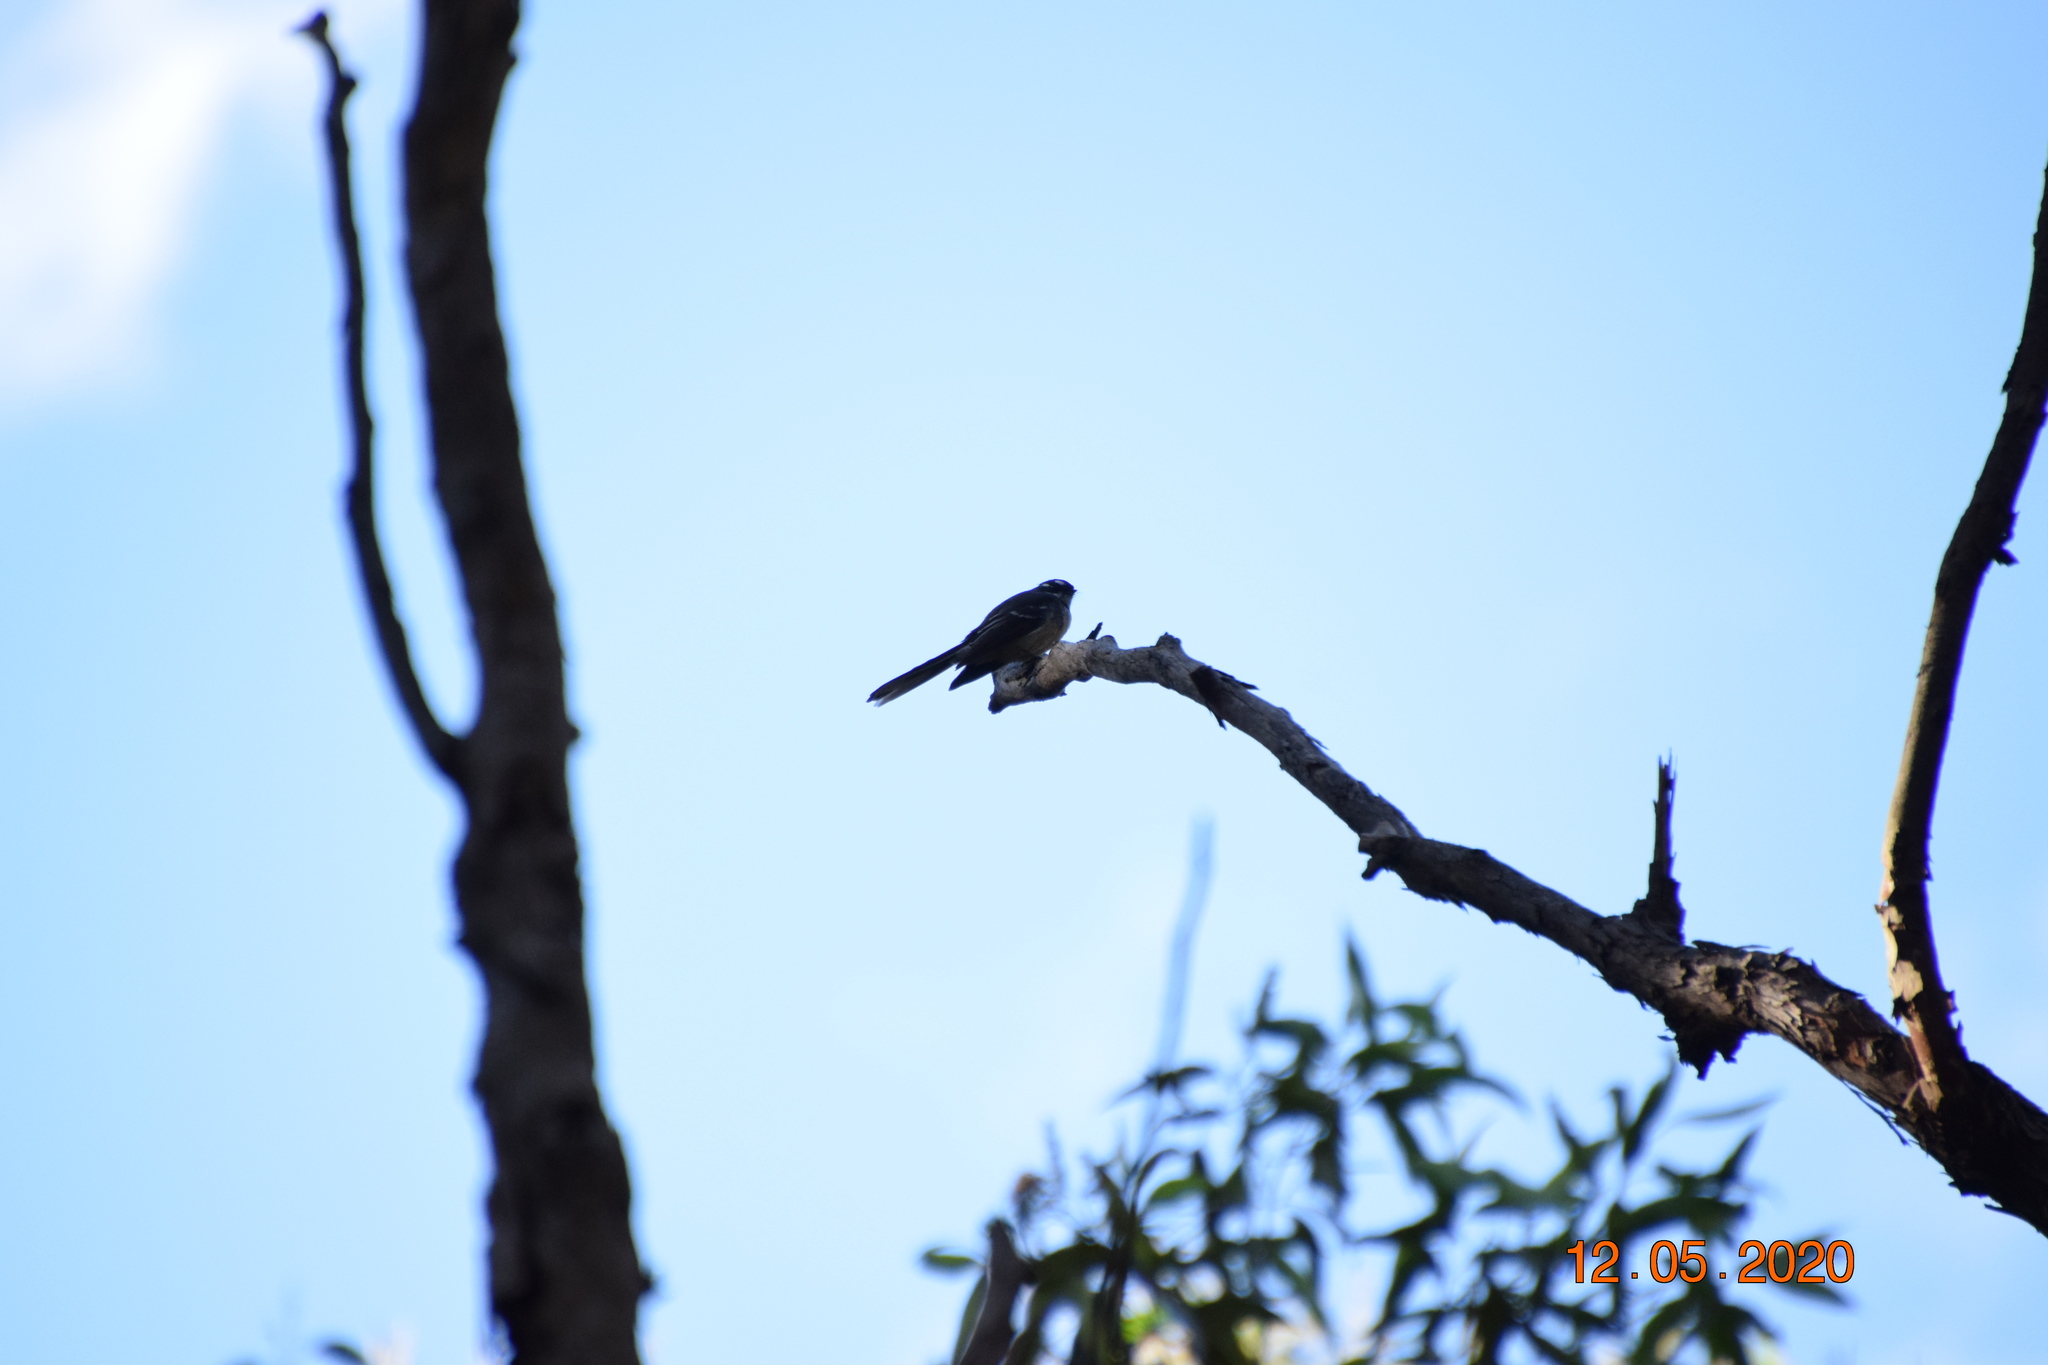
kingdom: Animalia
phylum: Chordata
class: Aves
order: Passeriformes
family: Rhipiduridae
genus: Rhipidura
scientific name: Rhipidura albiscapa
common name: Grey fantail
